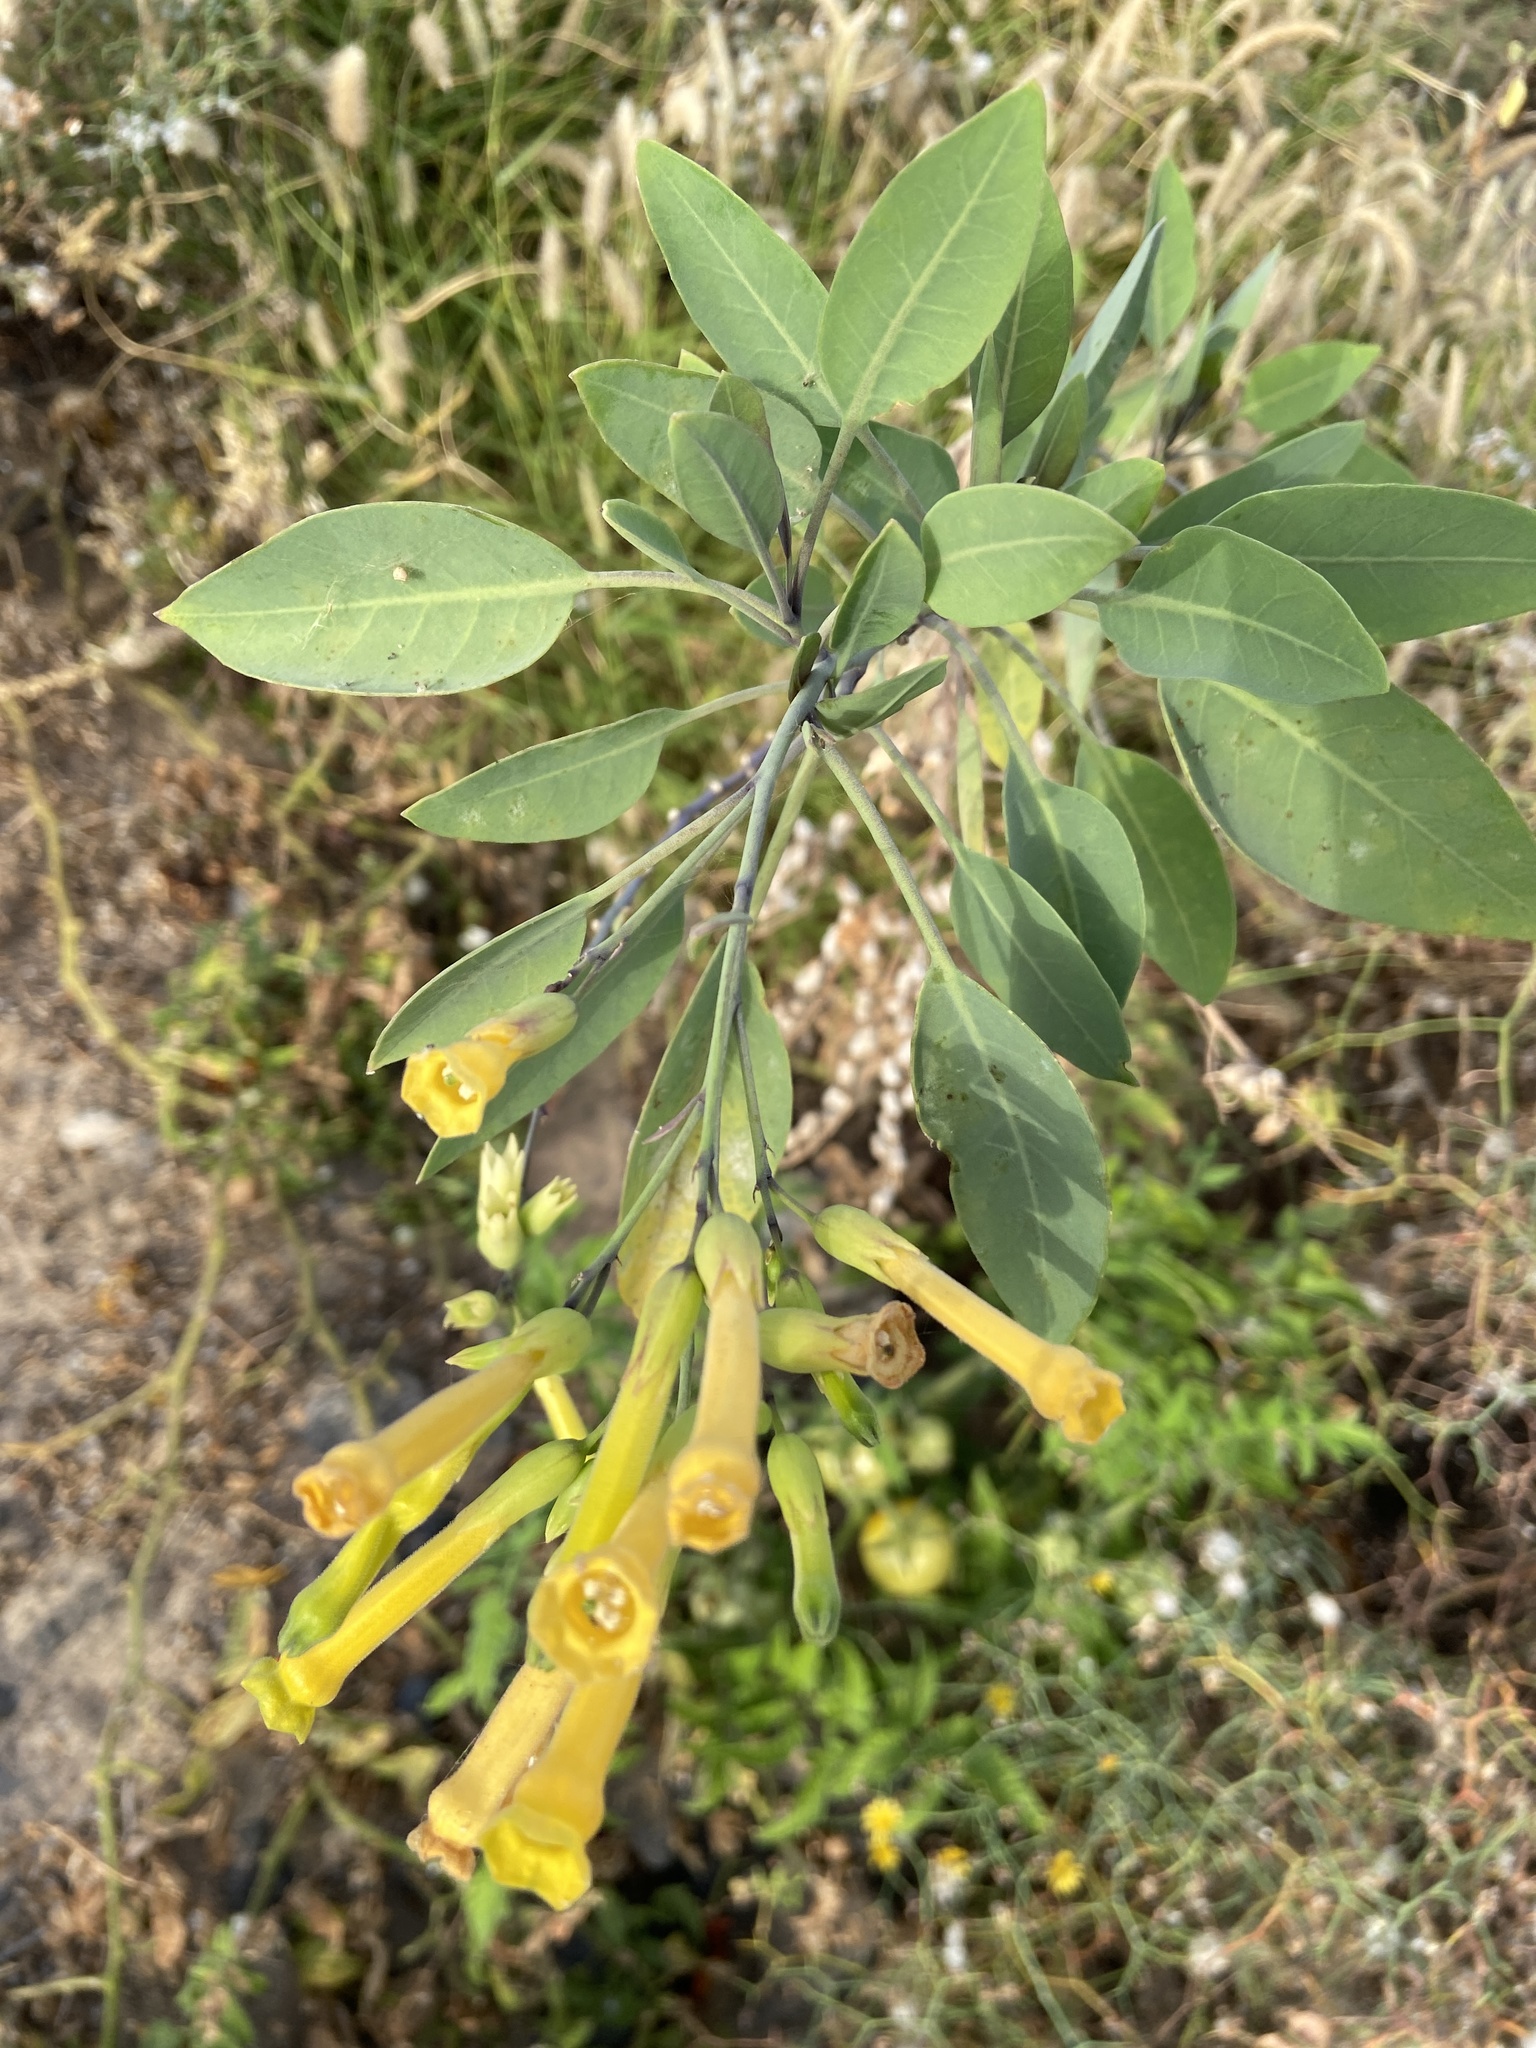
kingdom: Plantae
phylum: Tracheophyta
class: Magnoliopsida
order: Solanales
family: Solanaceae
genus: Nicotiana
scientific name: Nicotiana glauca
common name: Tree tobacco
